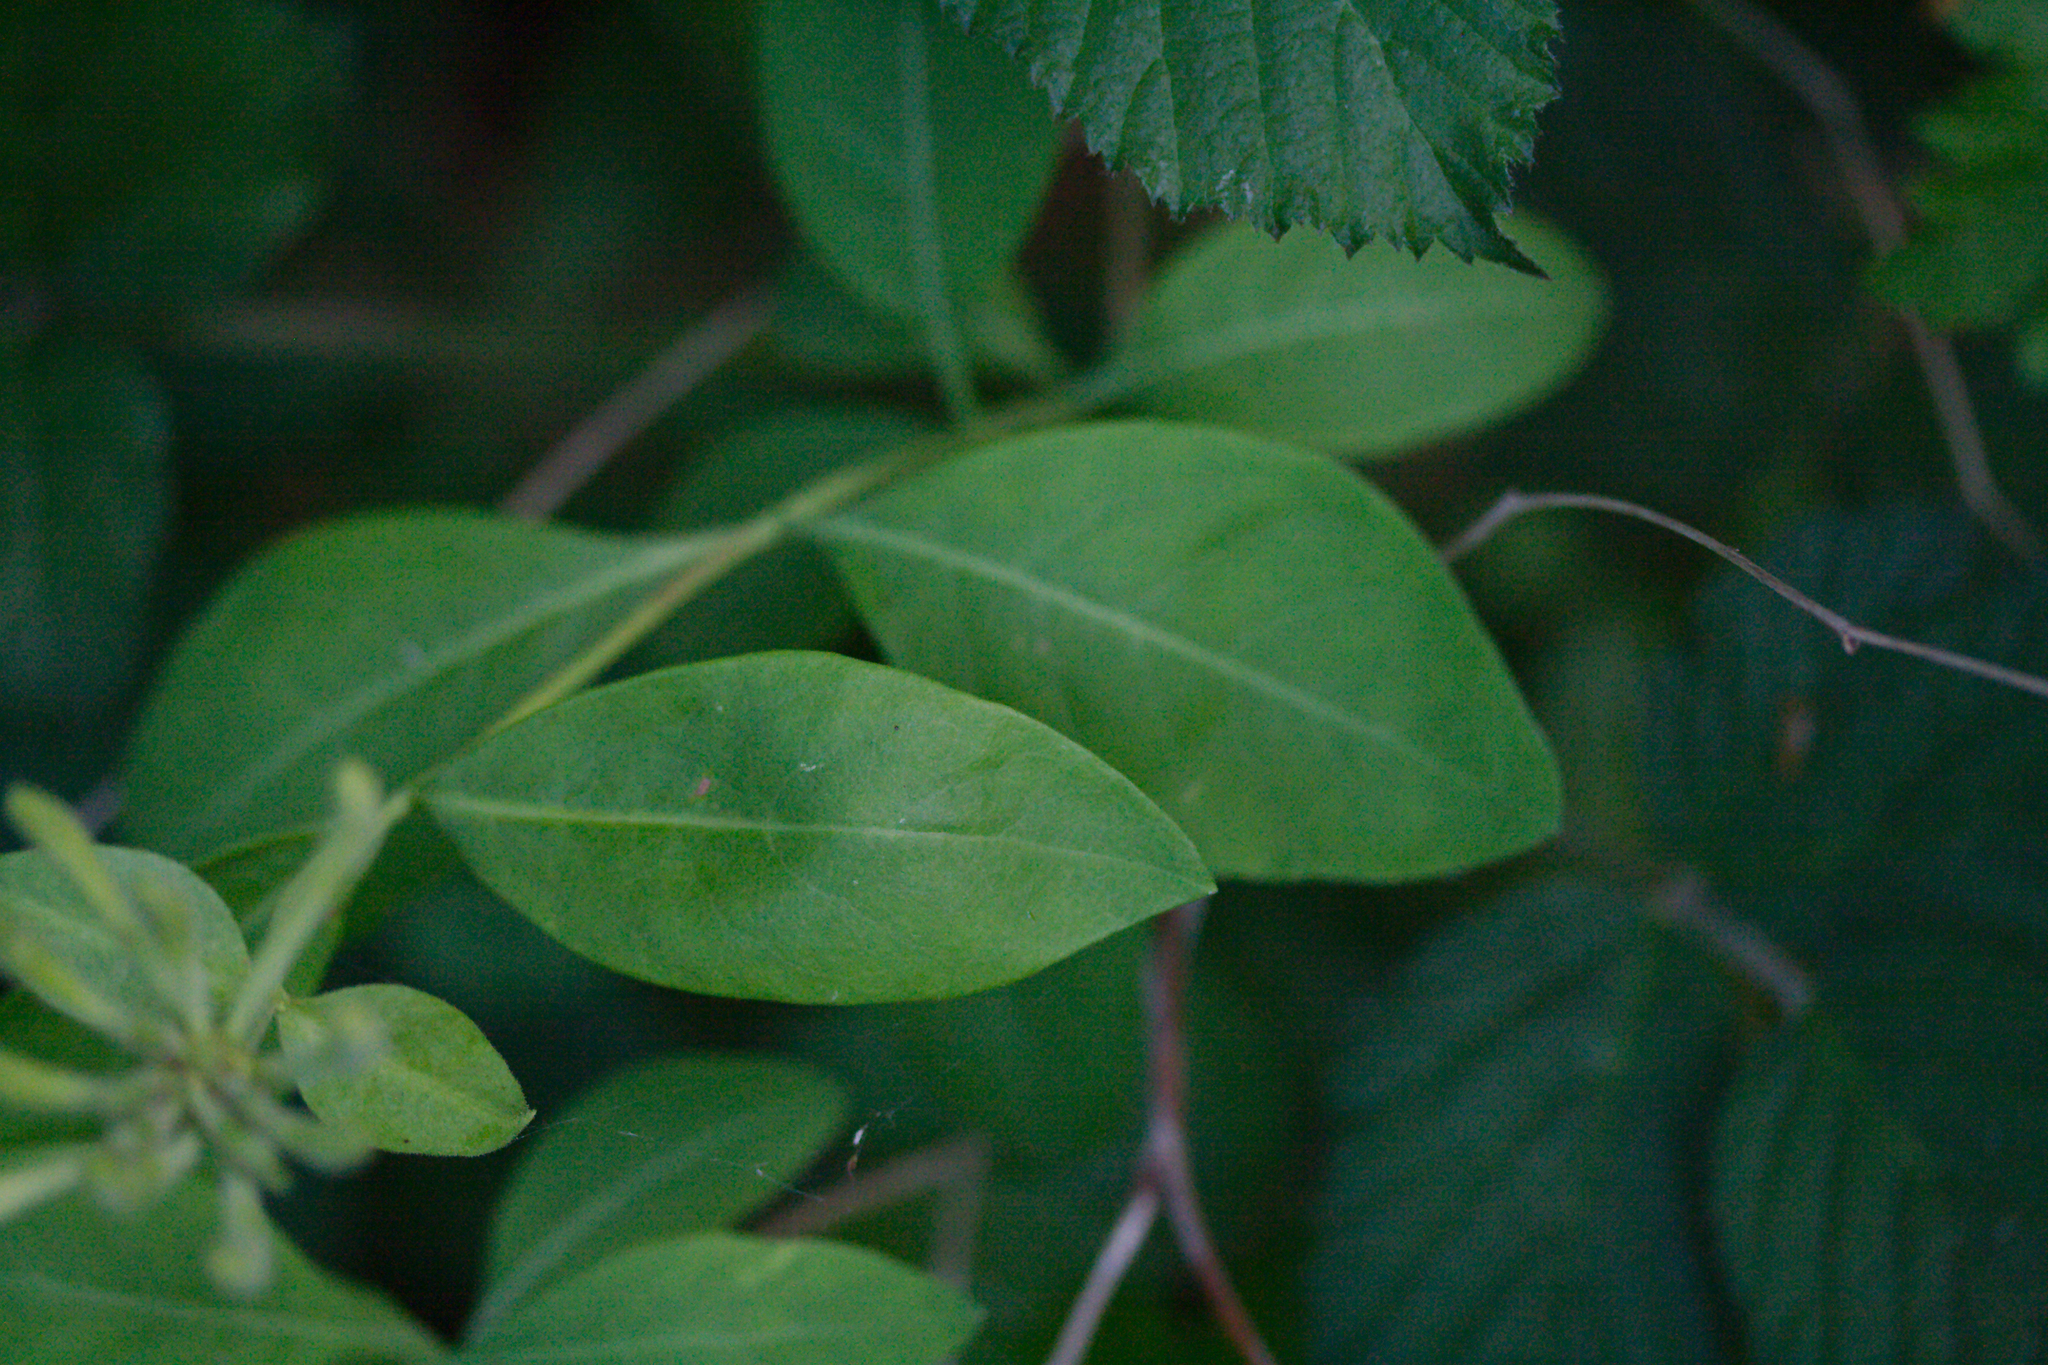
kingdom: Plantae
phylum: Tracheophyta
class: Magnoliopsida
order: Dipsacales
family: Caprifoliaceae
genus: Lonicera
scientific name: Lonicera periclymenum
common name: European honeysuckle
